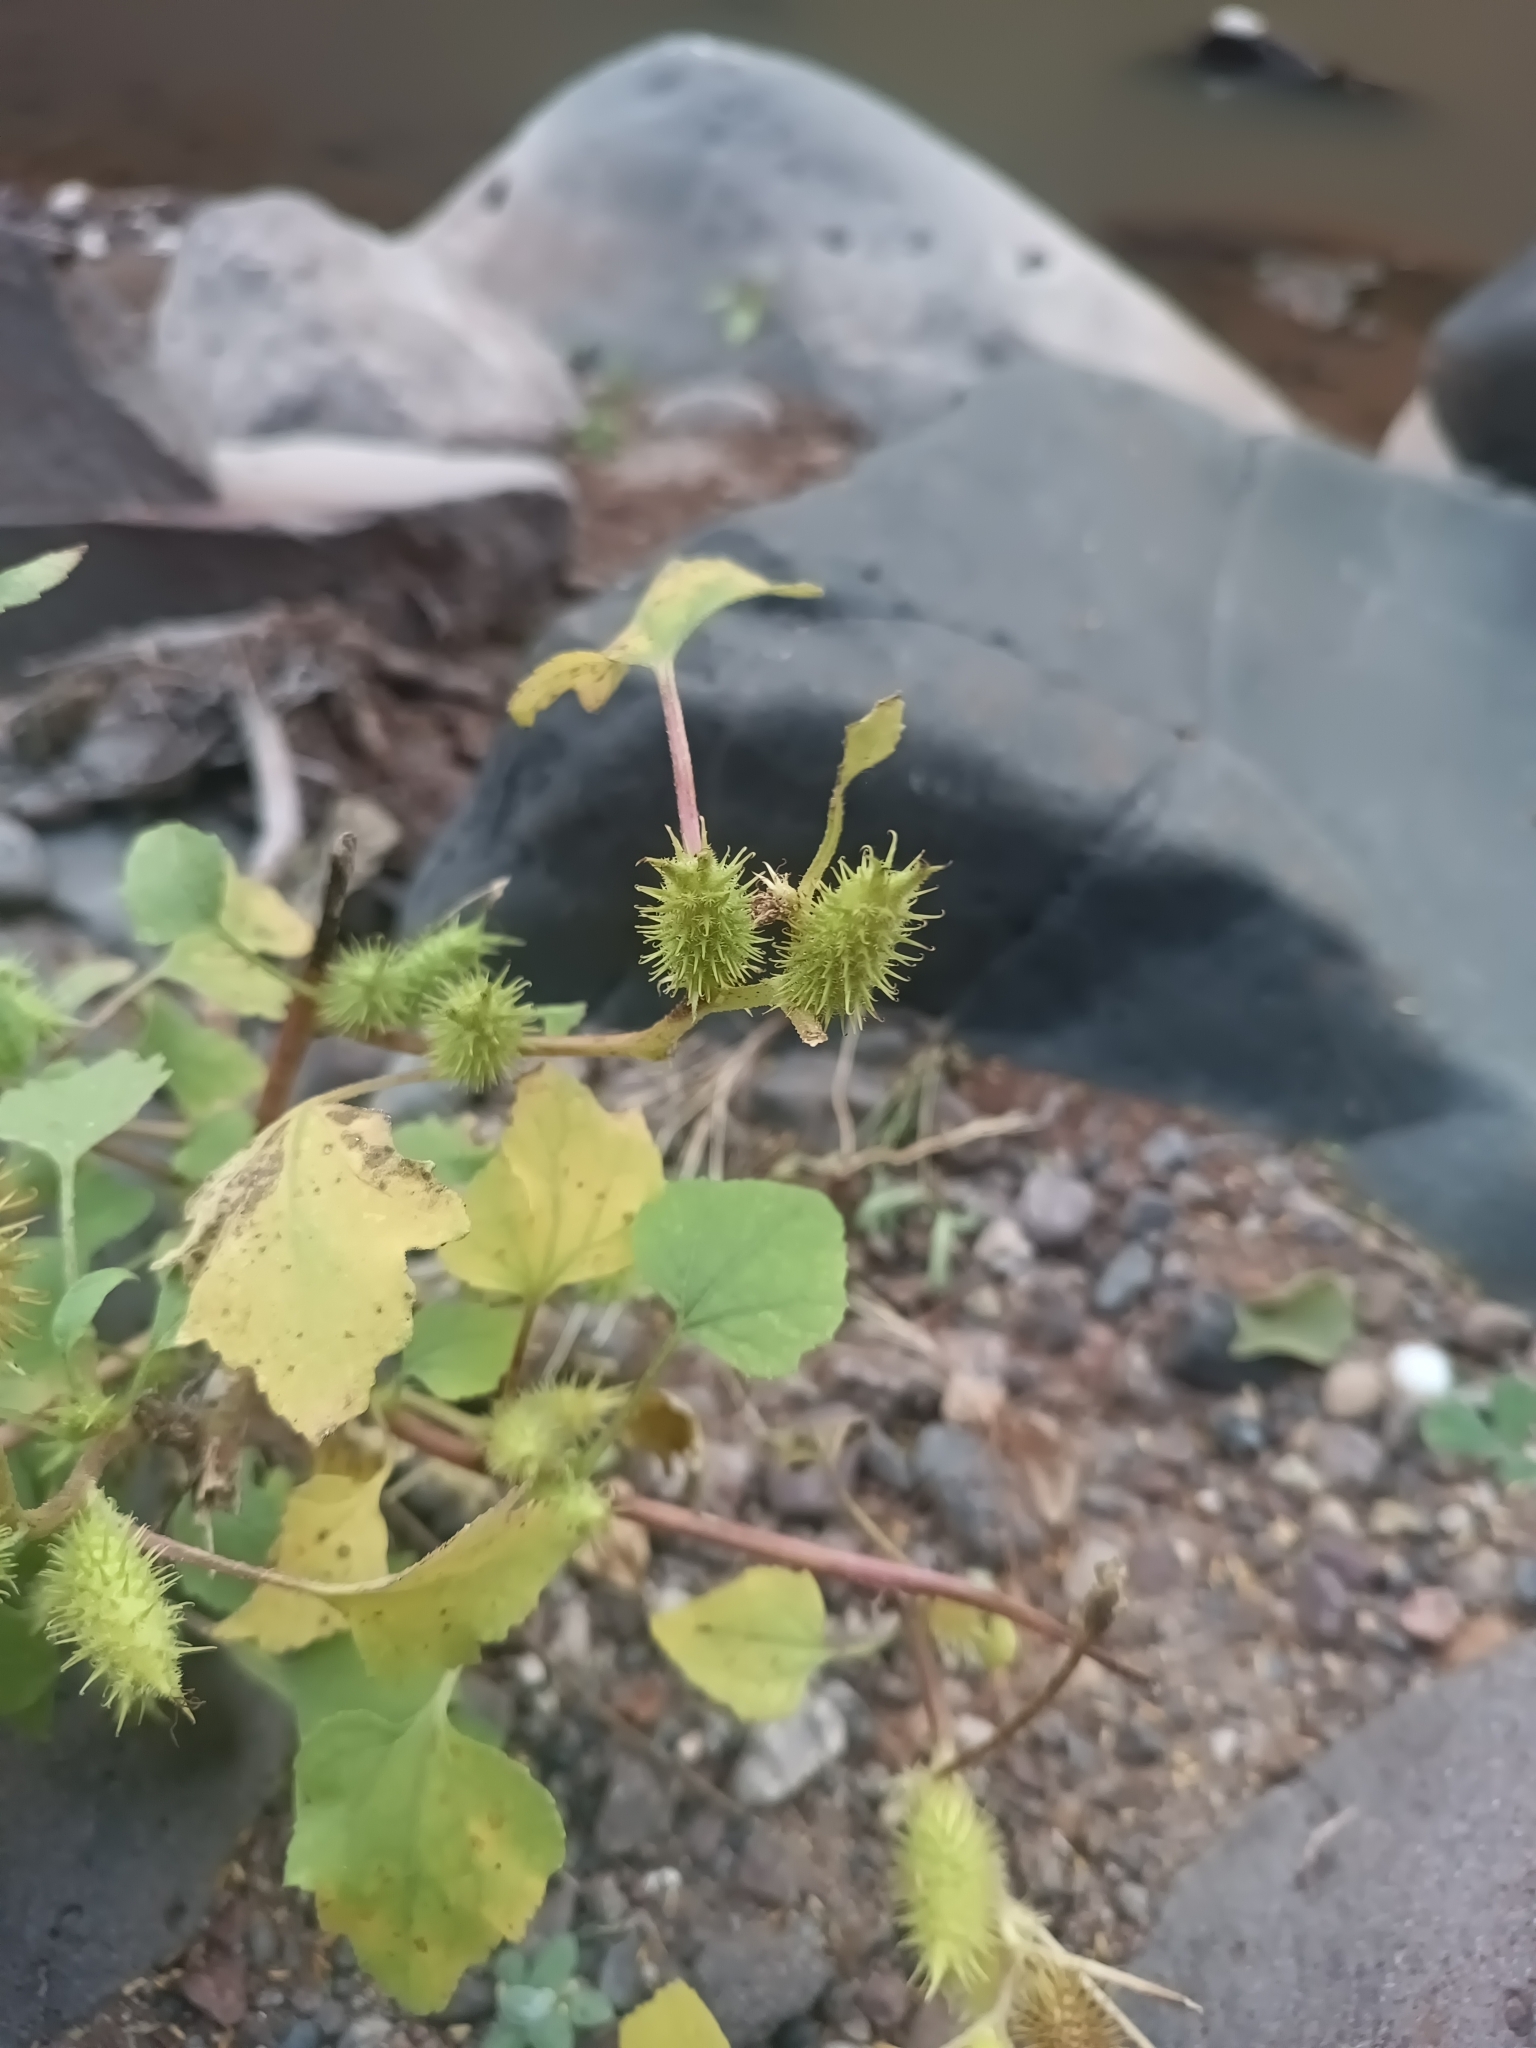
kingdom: Plantae
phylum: Tracheophyta
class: Magnoliopsida
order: Asterales
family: Asteraceae
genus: Xanthium
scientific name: Xanthium strumarium
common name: Rough cocklebur
